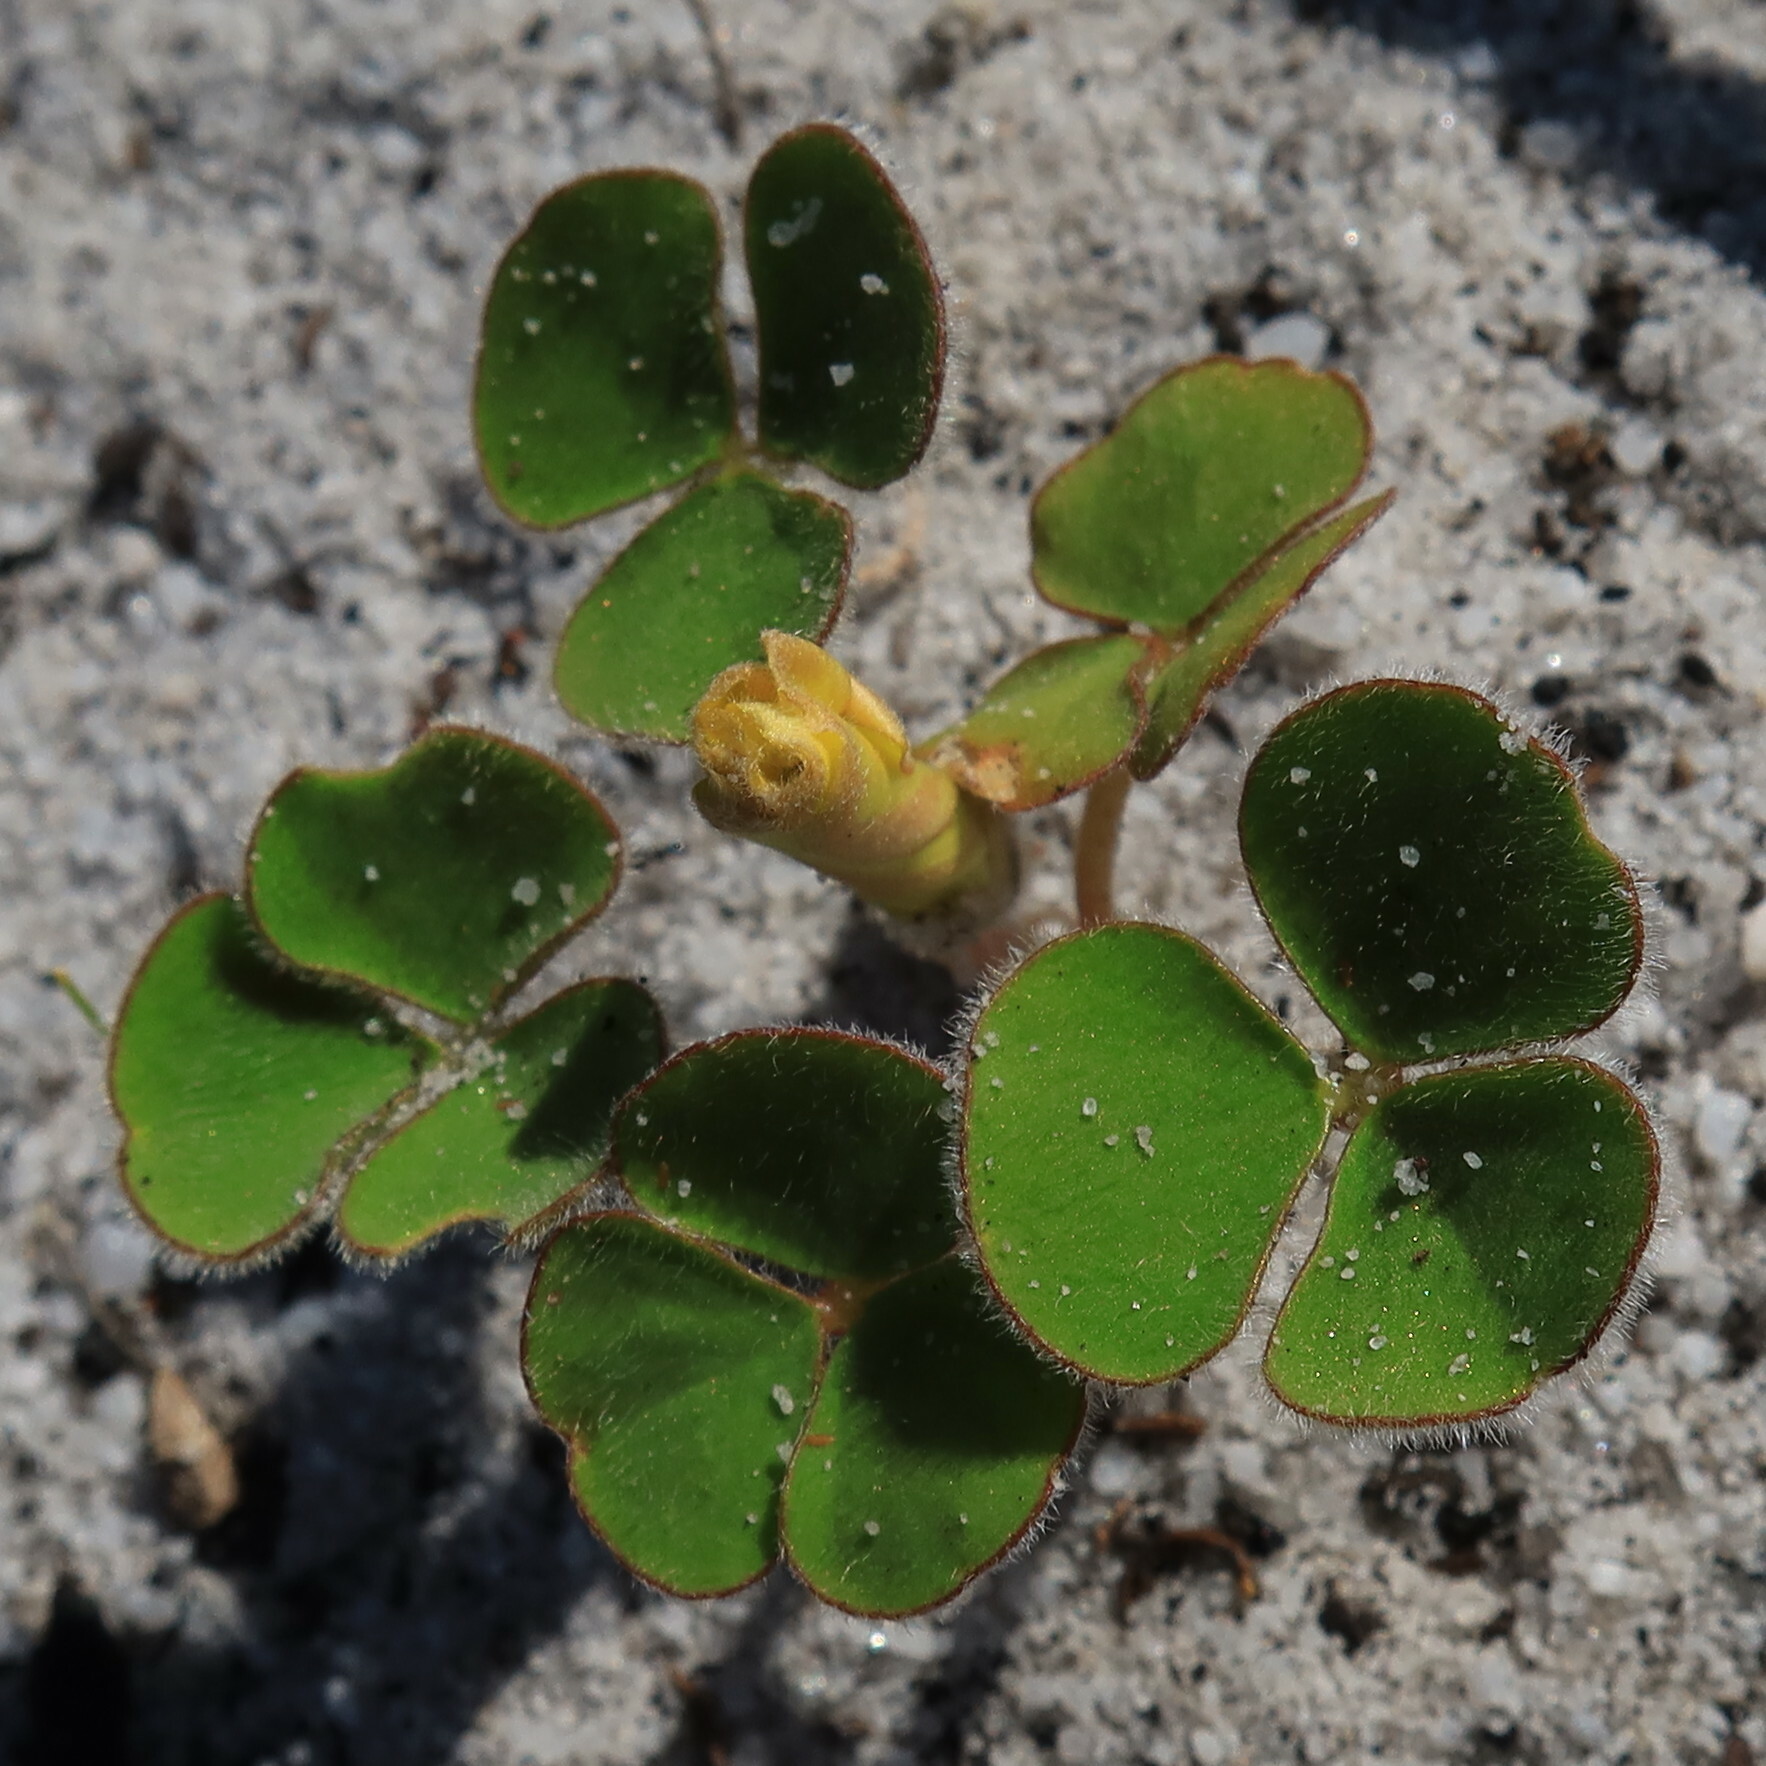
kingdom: Plantae
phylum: Tracheophyta
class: Magnoliopsida
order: Oxalidales
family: Oxalidaceae
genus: Oxalis
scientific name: Oxalis luteola
